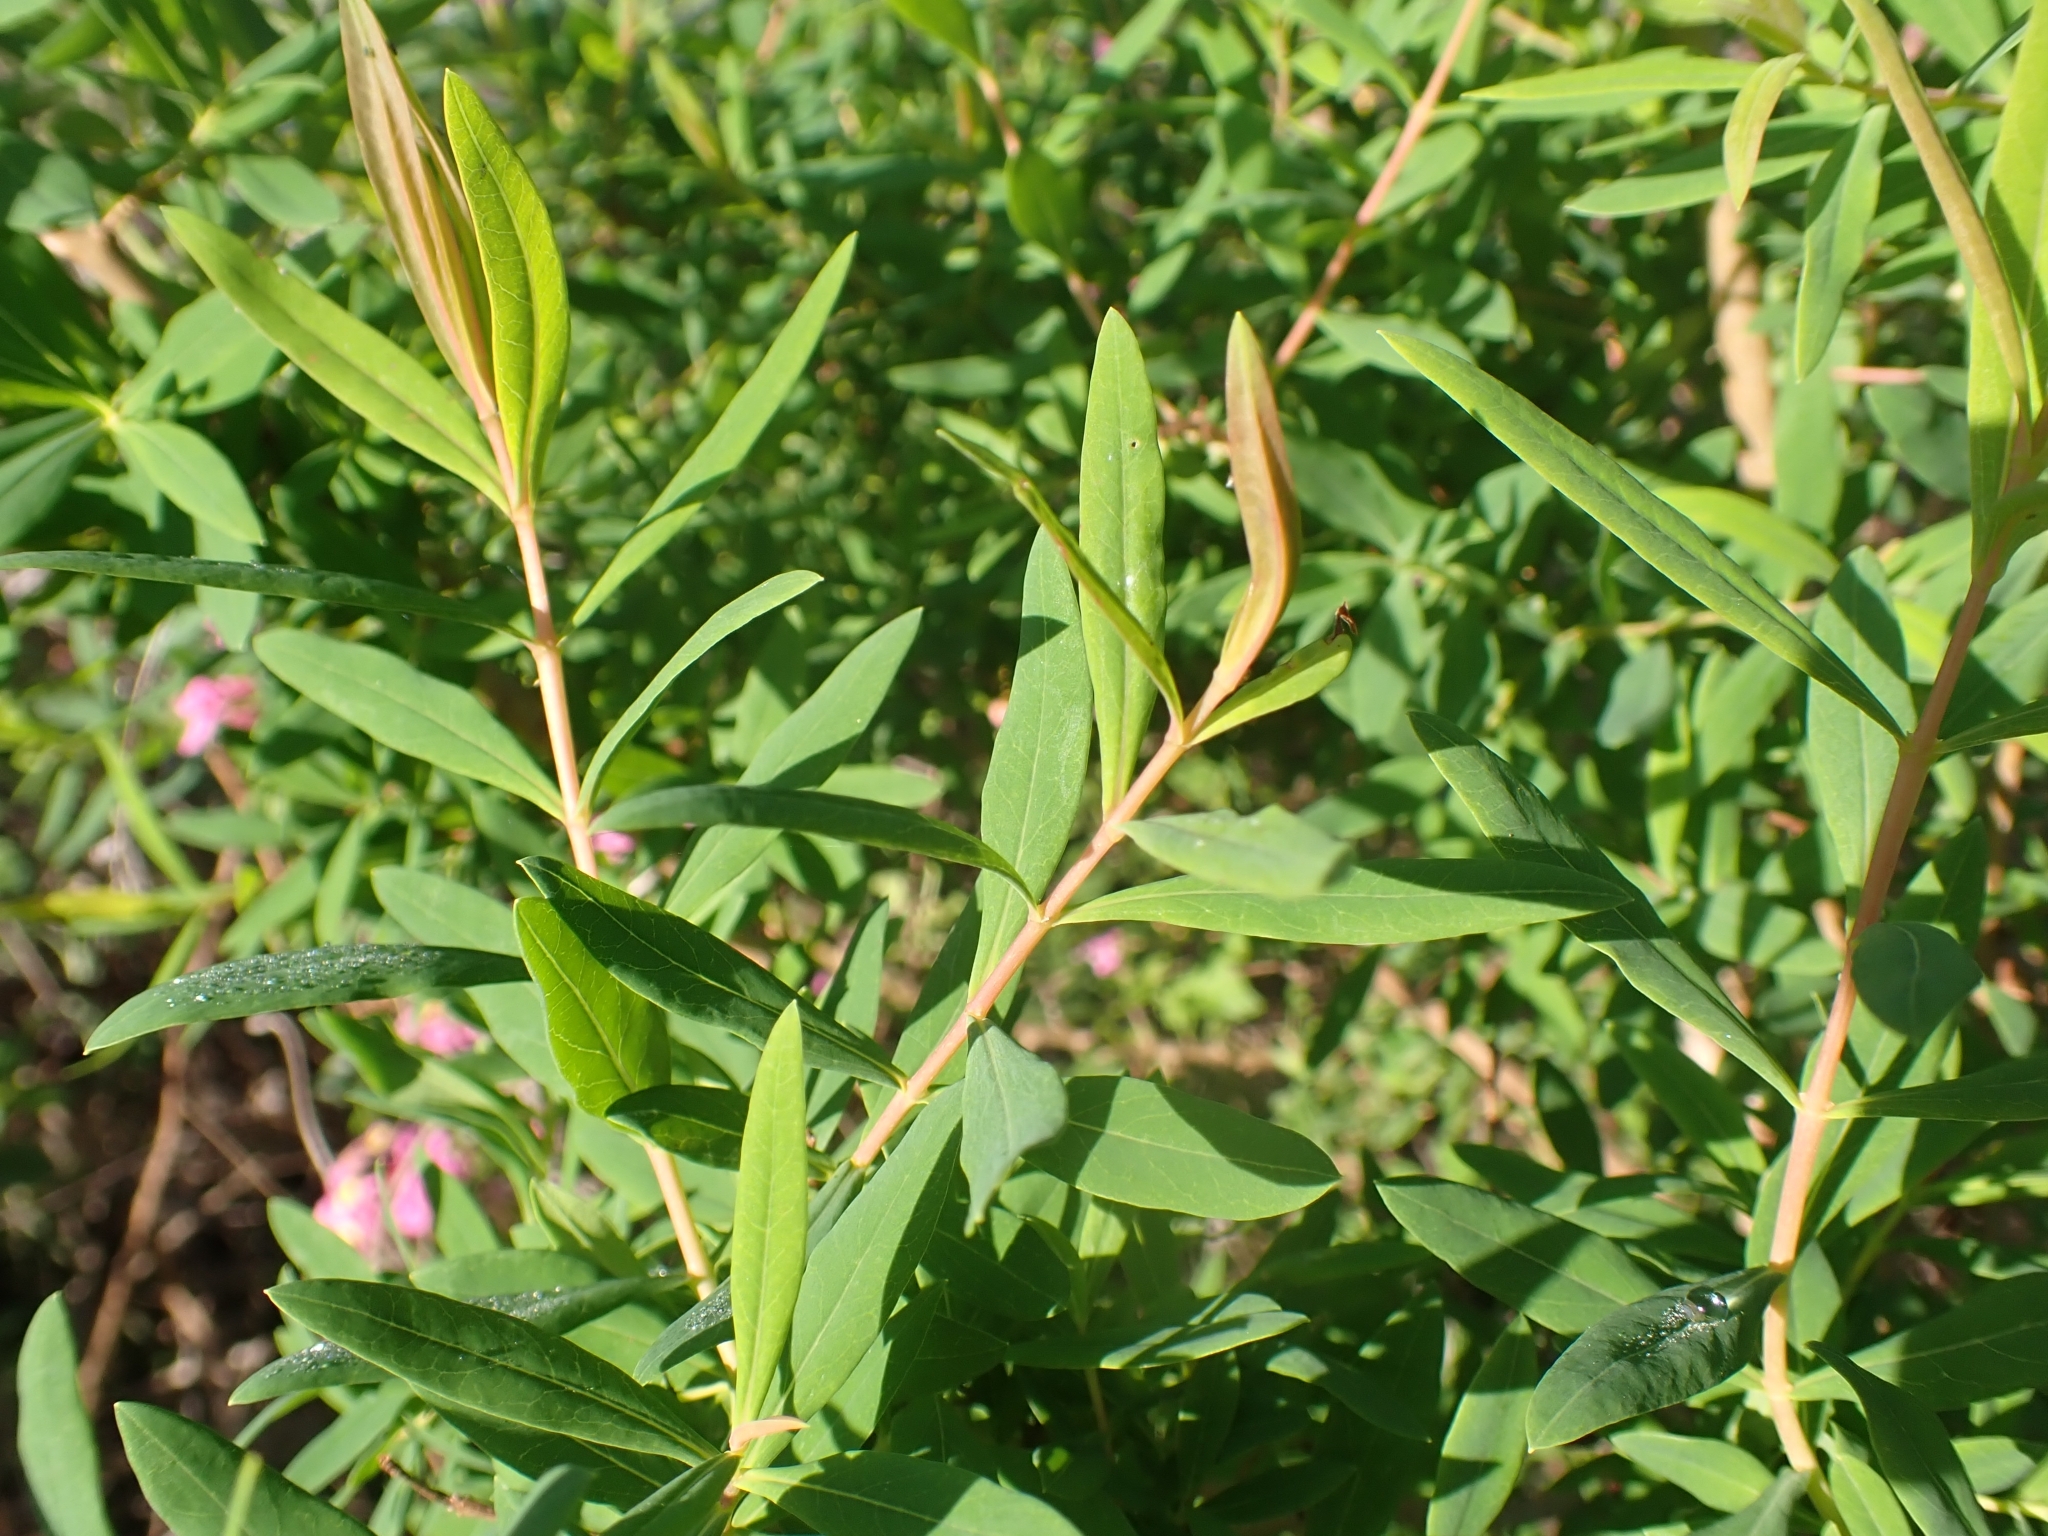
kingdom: Plantae
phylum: Tracheophyta
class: Magnoliopsida
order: Malpighiales
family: Hypericaceae
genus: Hypericum
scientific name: Hypericum canariense
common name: Canary island st. johnswort
